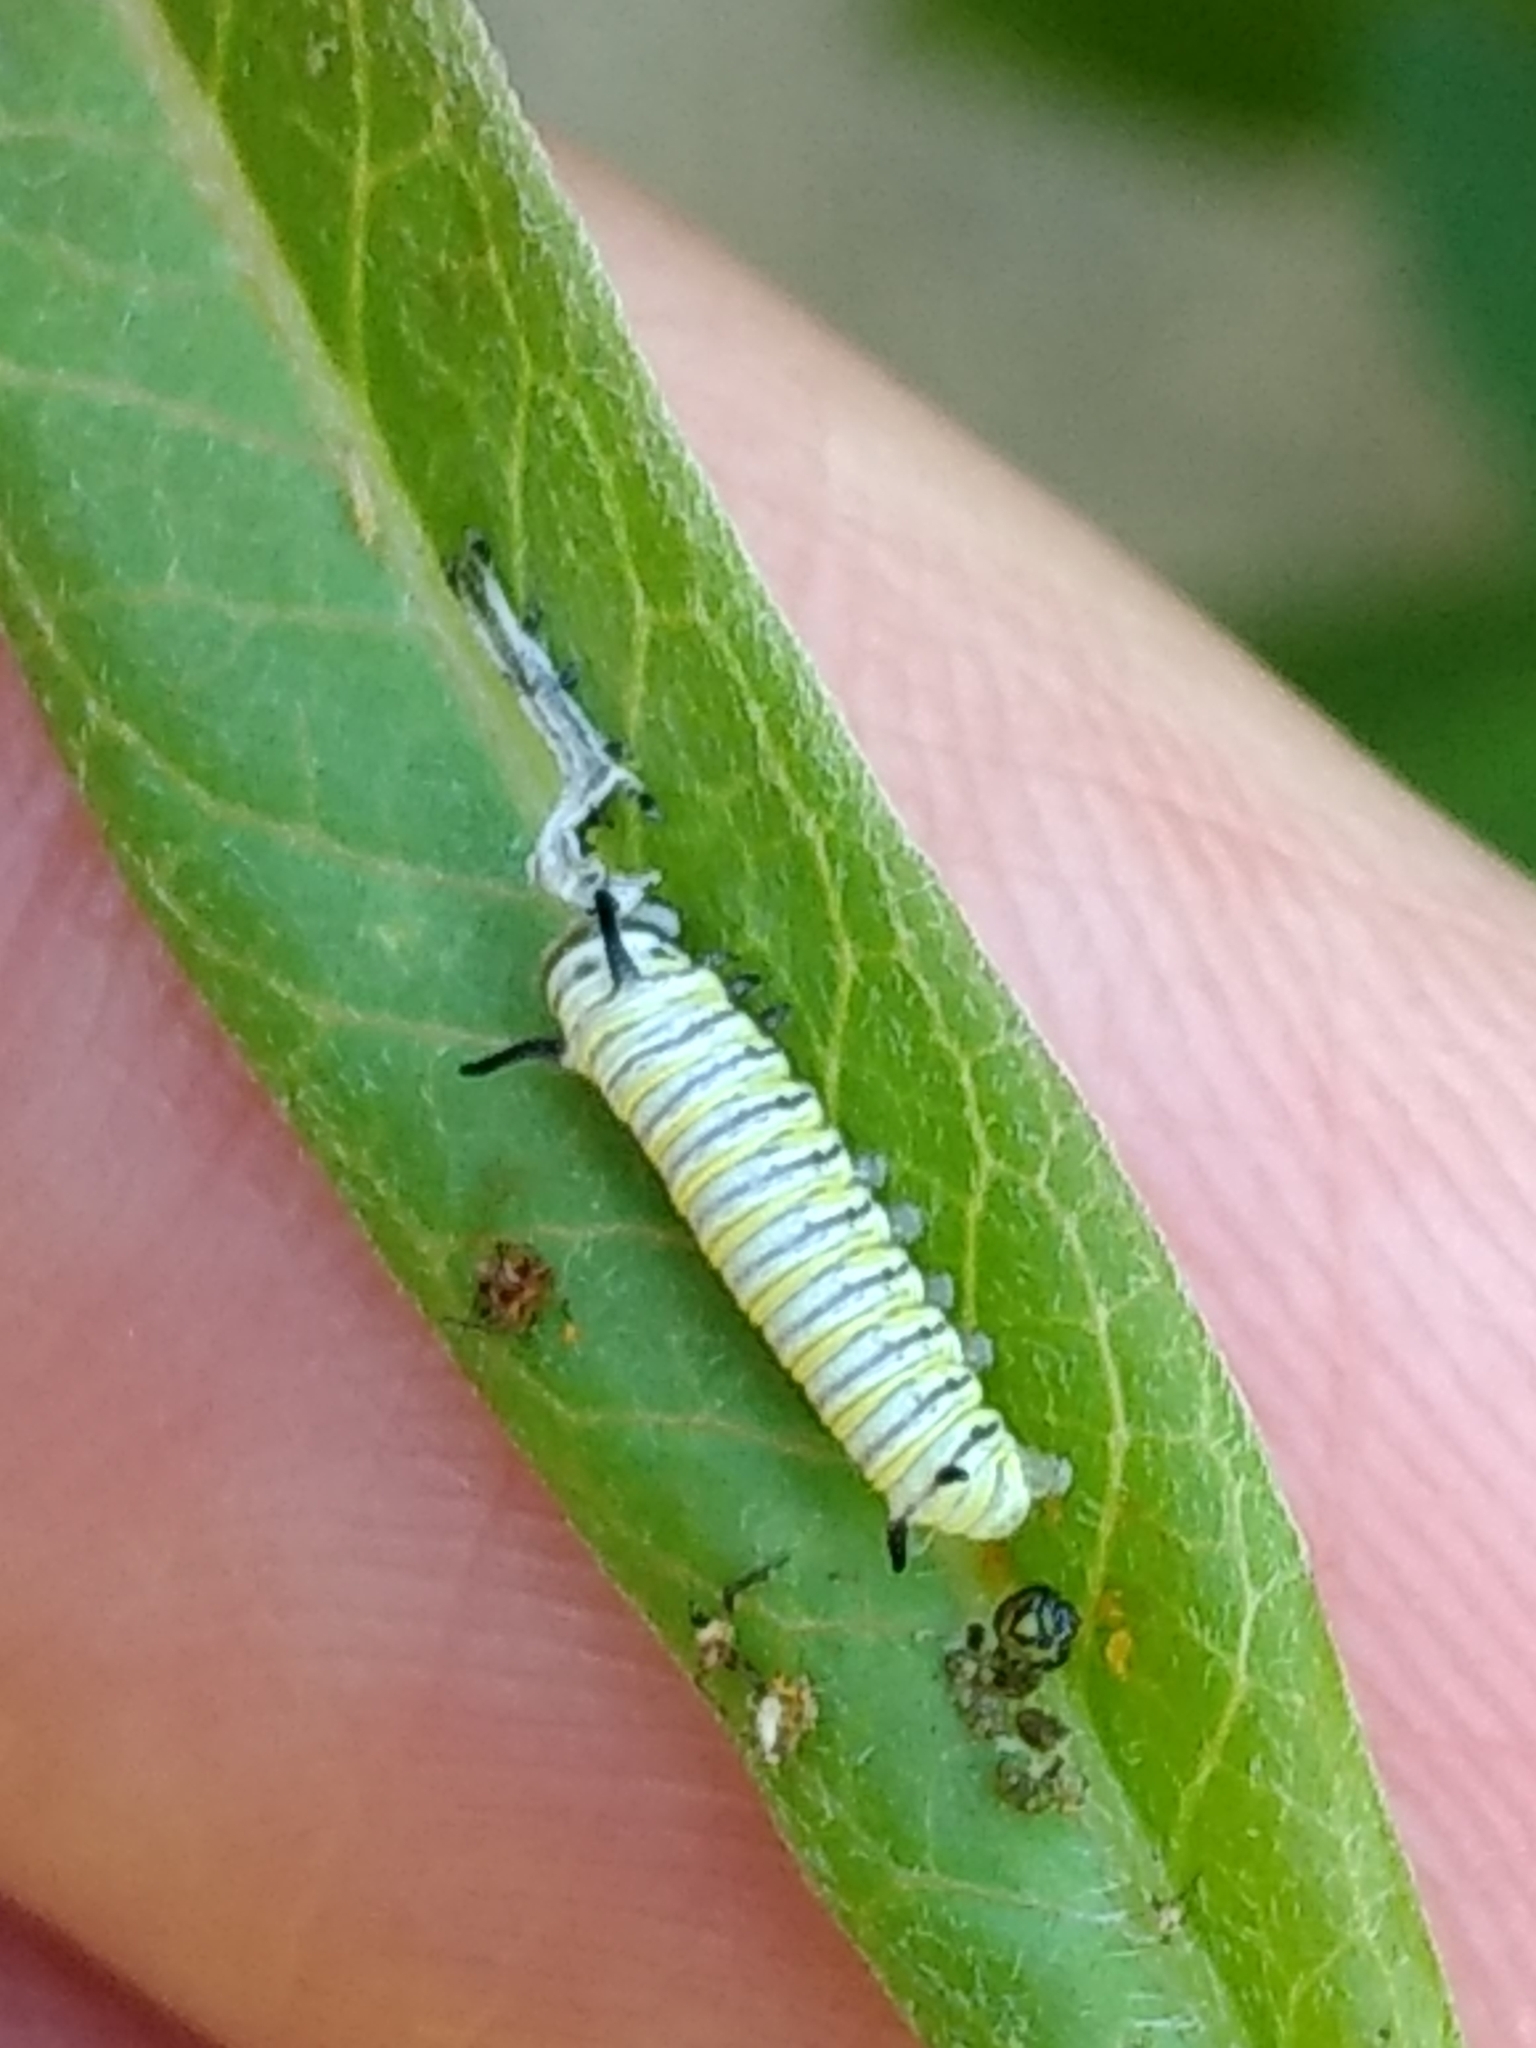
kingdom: Animalia
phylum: Arthropoda
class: Insecta
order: Lepidoptera
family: Nymphalidae
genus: Danaus
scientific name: Danaus plexippus
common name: Monarch
